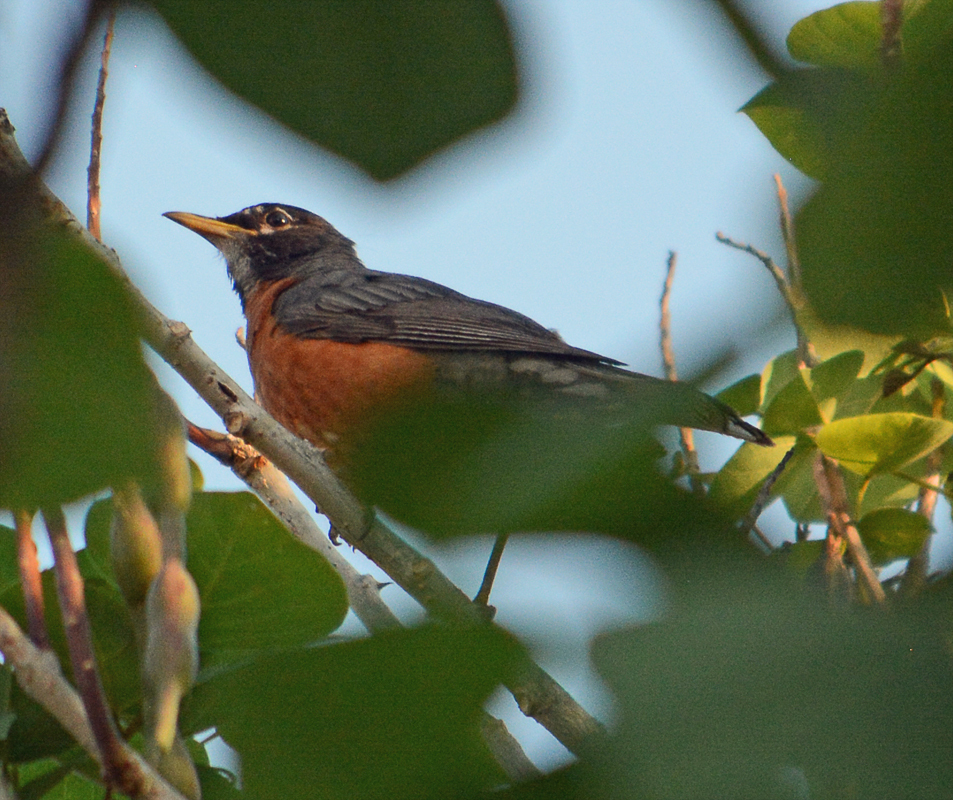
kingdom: Animalia
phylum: Chordata
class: Aves
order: Passeriformes
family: Turdidae
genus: Turdus
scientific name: Turdus migratorius
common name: American robin
